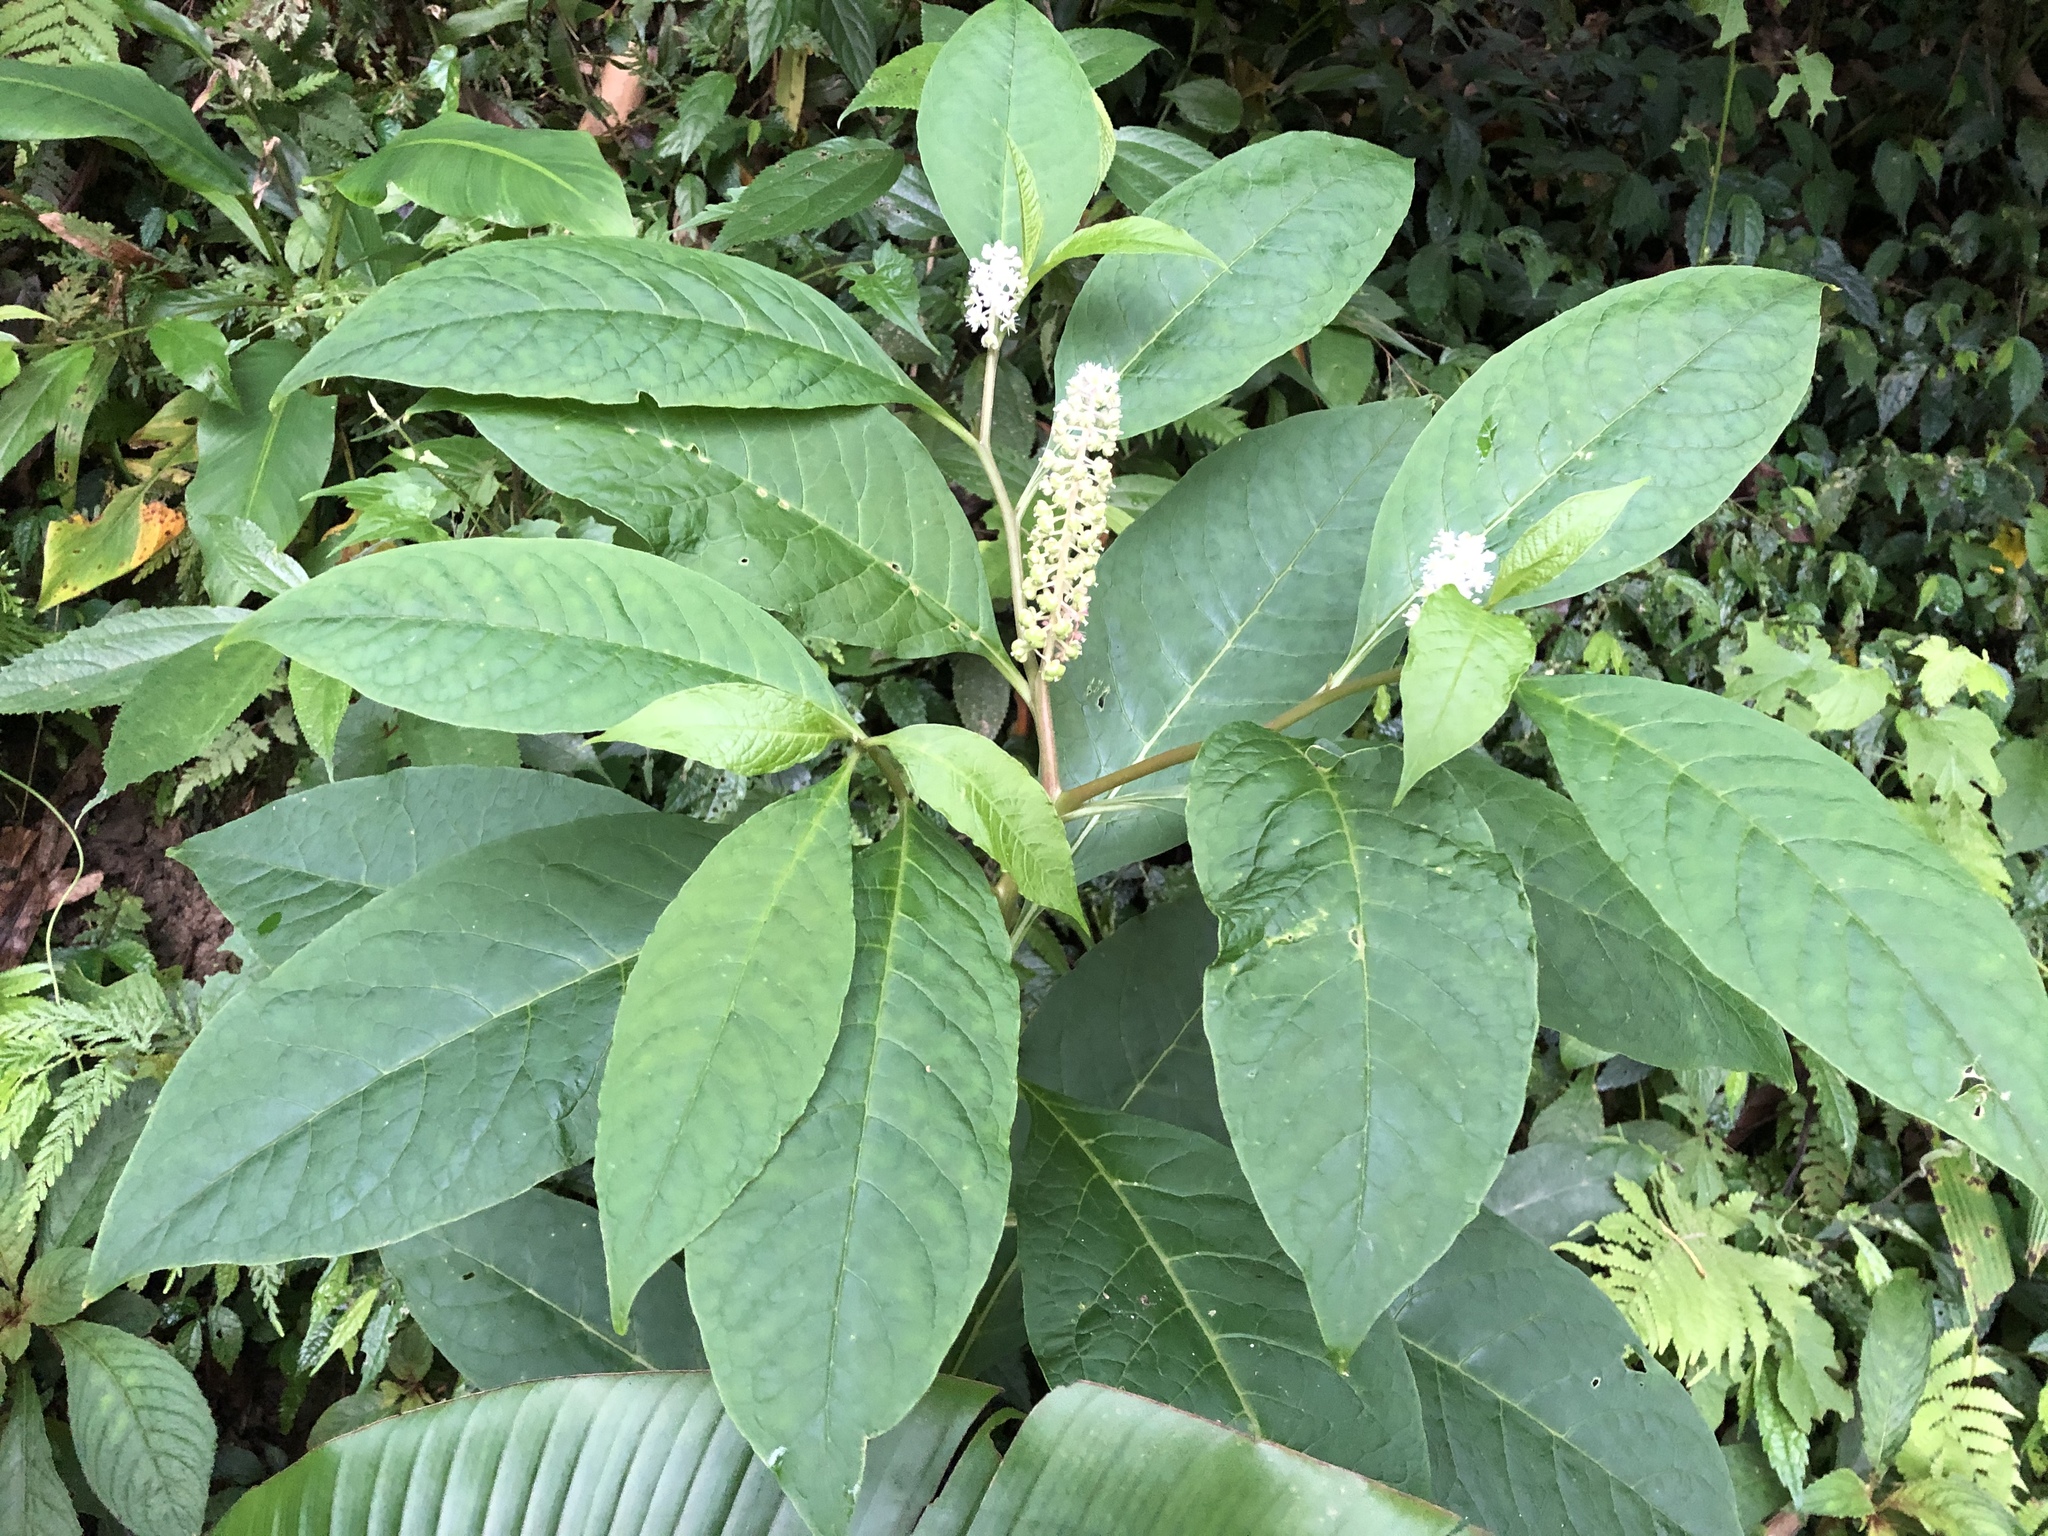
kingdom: Plantae
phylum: Tracheophyta
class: Magnoliopsida
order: Caryophyllales
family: Phytolaccaceae
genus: Phytolacca
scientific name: Phytolacca japonica
